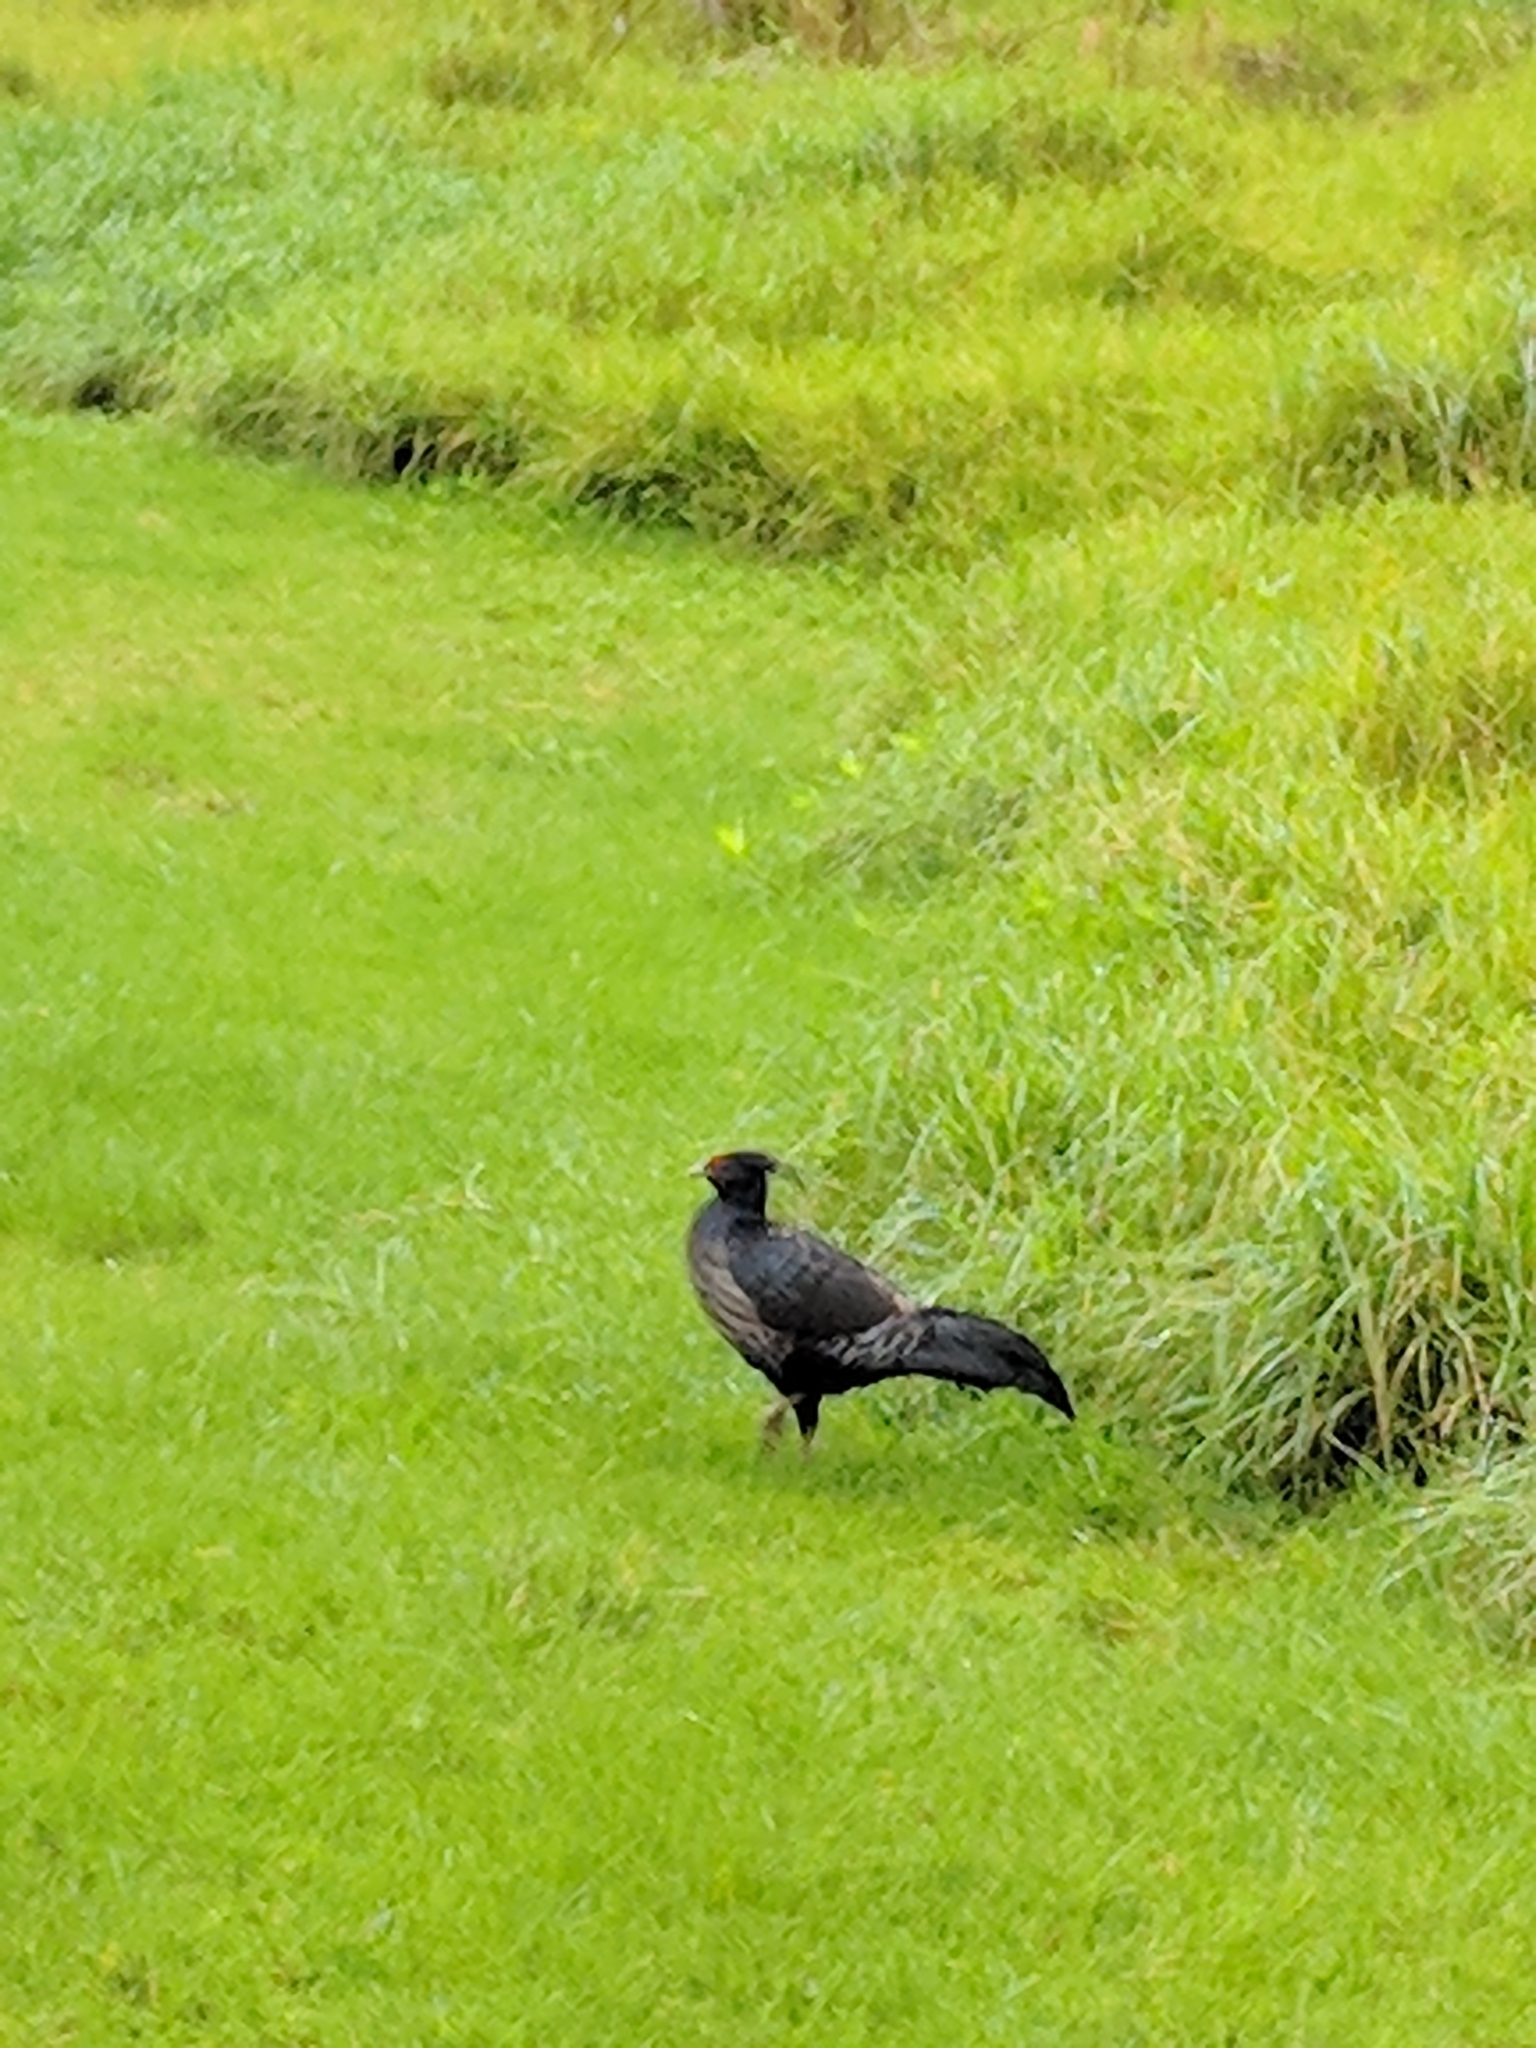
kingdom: Animalia
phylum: Chordata
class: Aves
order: Galliformes
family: Phasianidae
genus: Lophura
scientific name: Lophura leucomelanos
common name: Kalij pheasant
